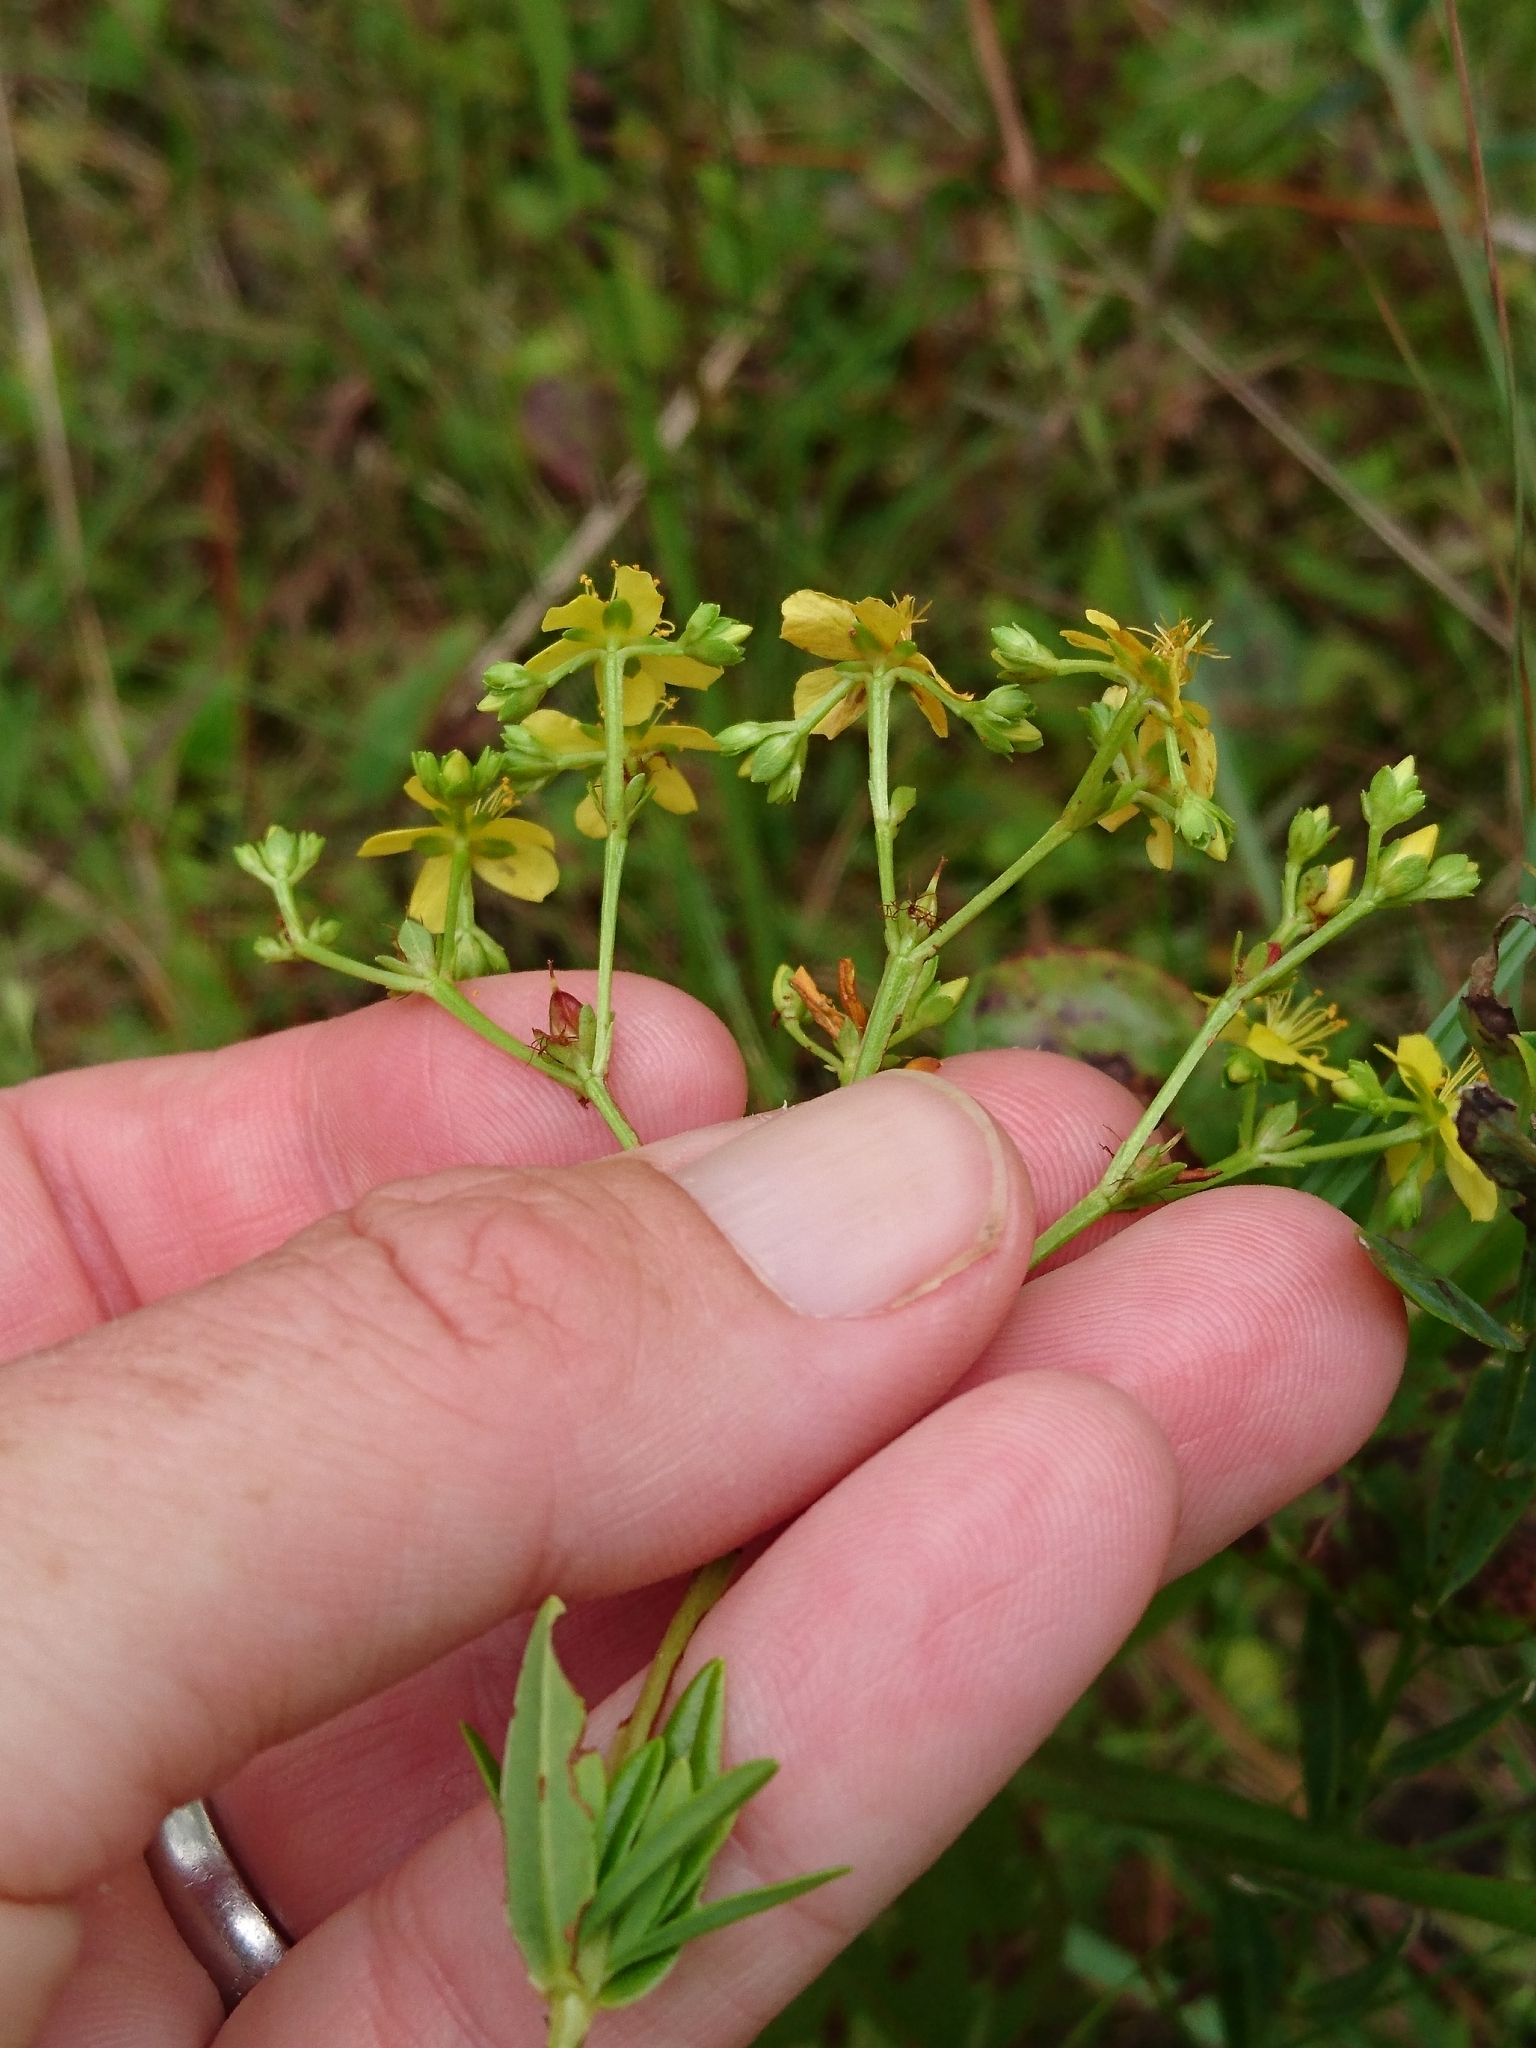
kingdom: Plantae
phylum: Tracheophyta
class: Magnoliopsida
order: Malpighiales
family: Hypericaceae
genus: Hypericum
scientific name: Hypericum cistifolium
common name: Round-pod st. john's-wort
